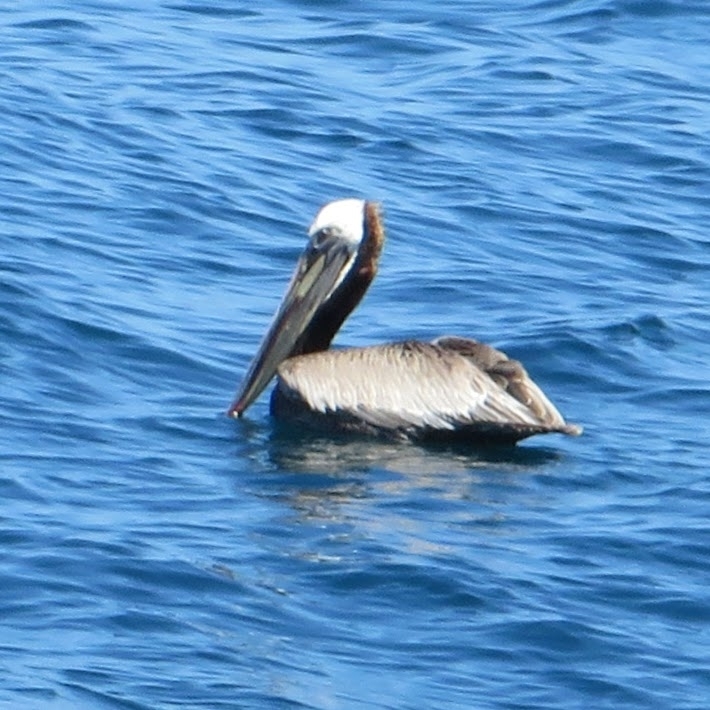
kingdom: Animalia
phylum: Chordata
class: Aves
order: Pelecaniformes
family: Pelecanidae
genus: Pelecanus
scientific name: Pelecanus occidentalis
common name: Brown pelican
